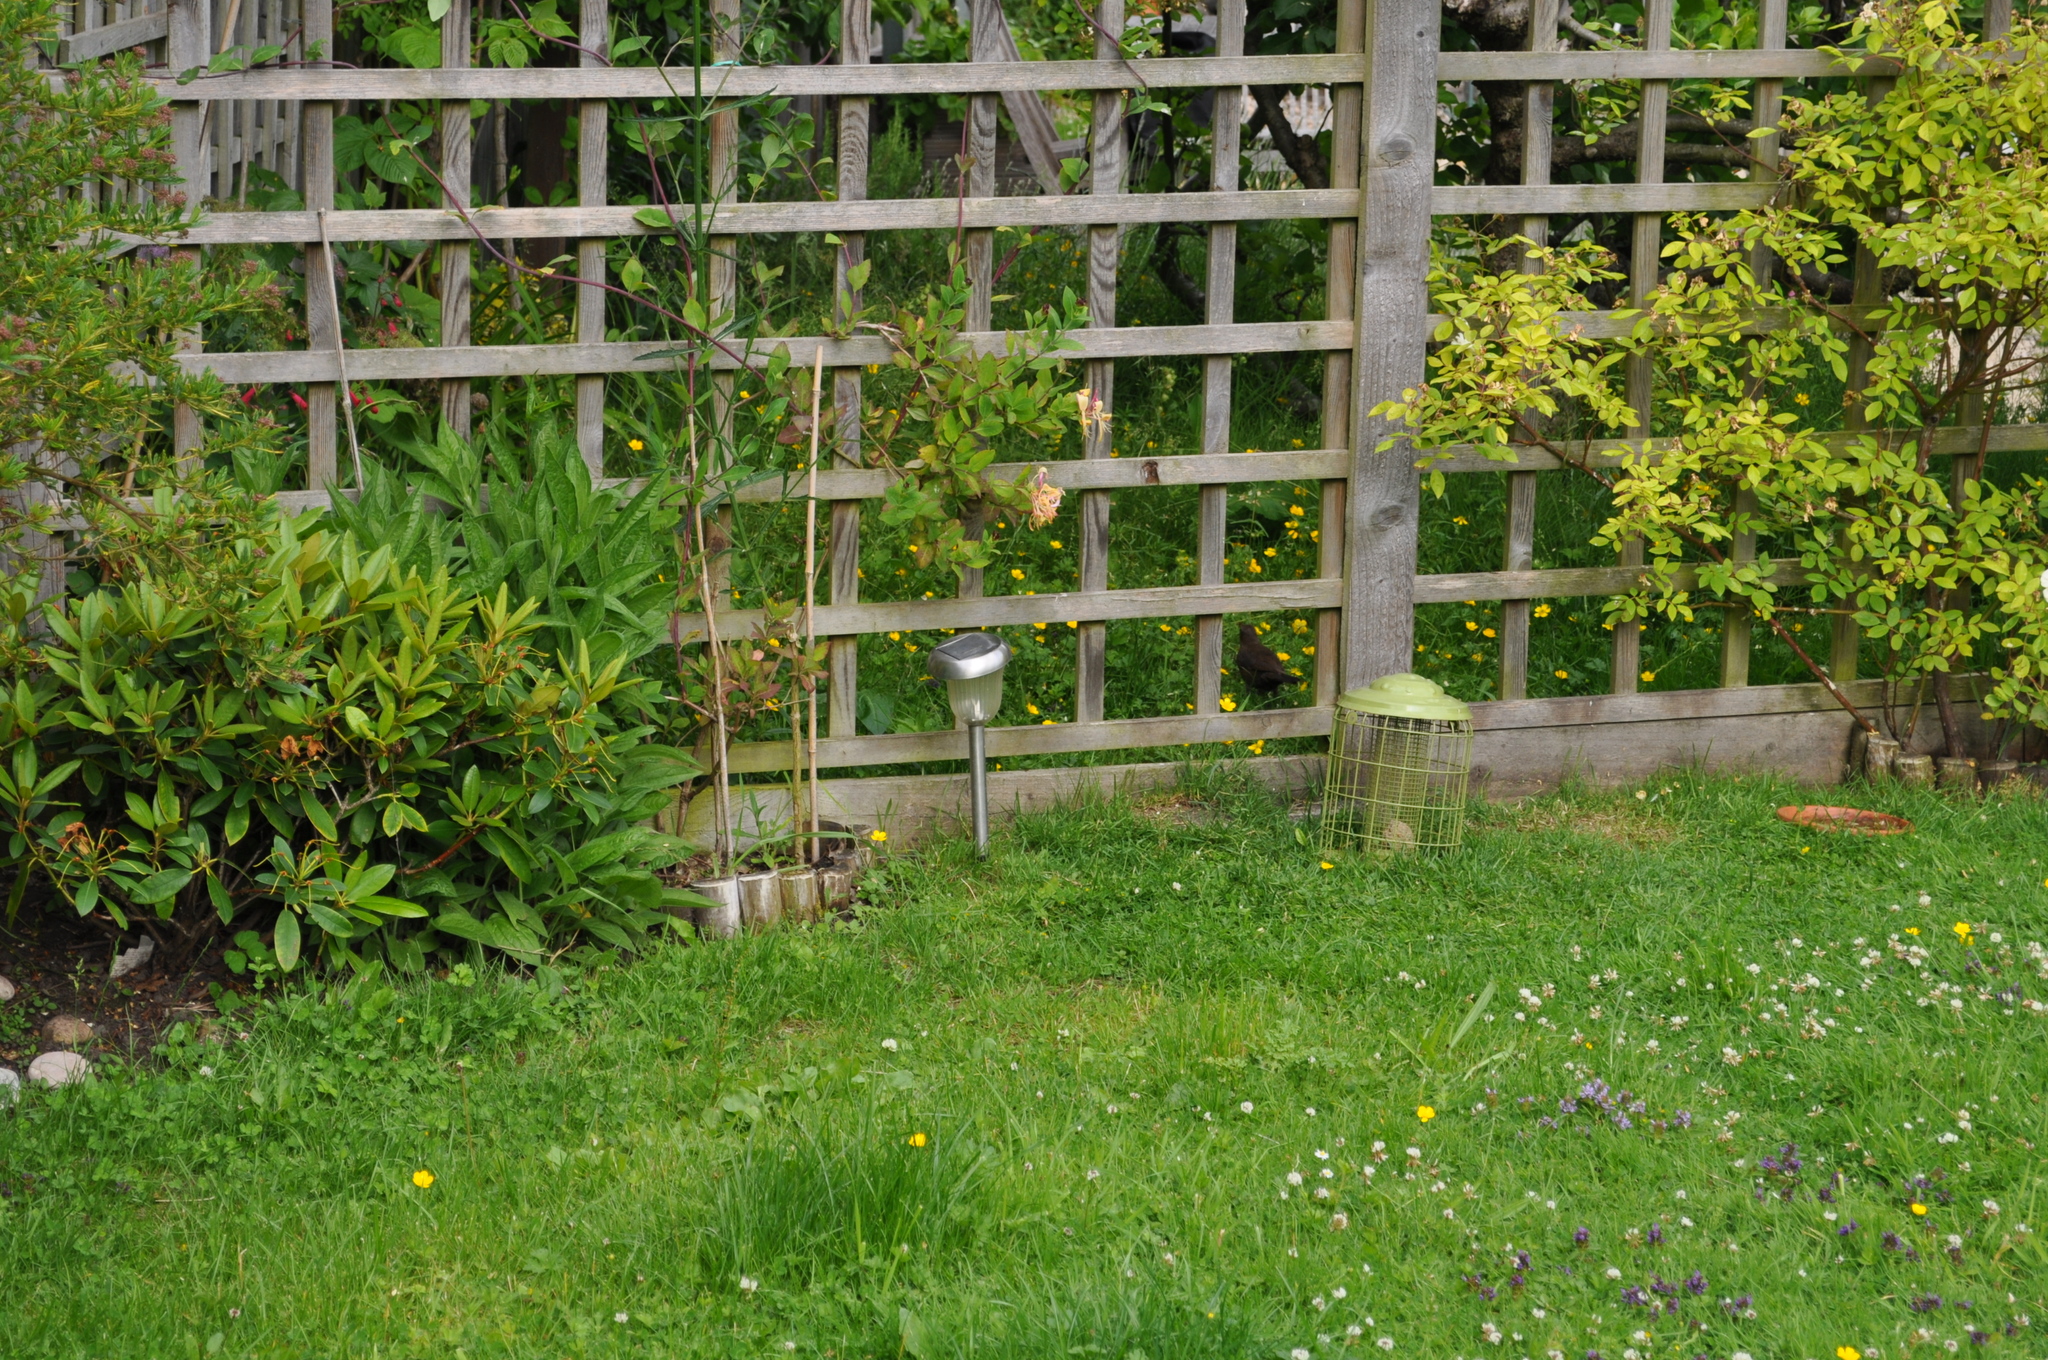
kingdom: Animalia
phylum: Chordata
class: Aves
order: Passeriformes
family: Turdidae
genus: Turdus
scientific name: Turdus merula
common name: Common blackbird
